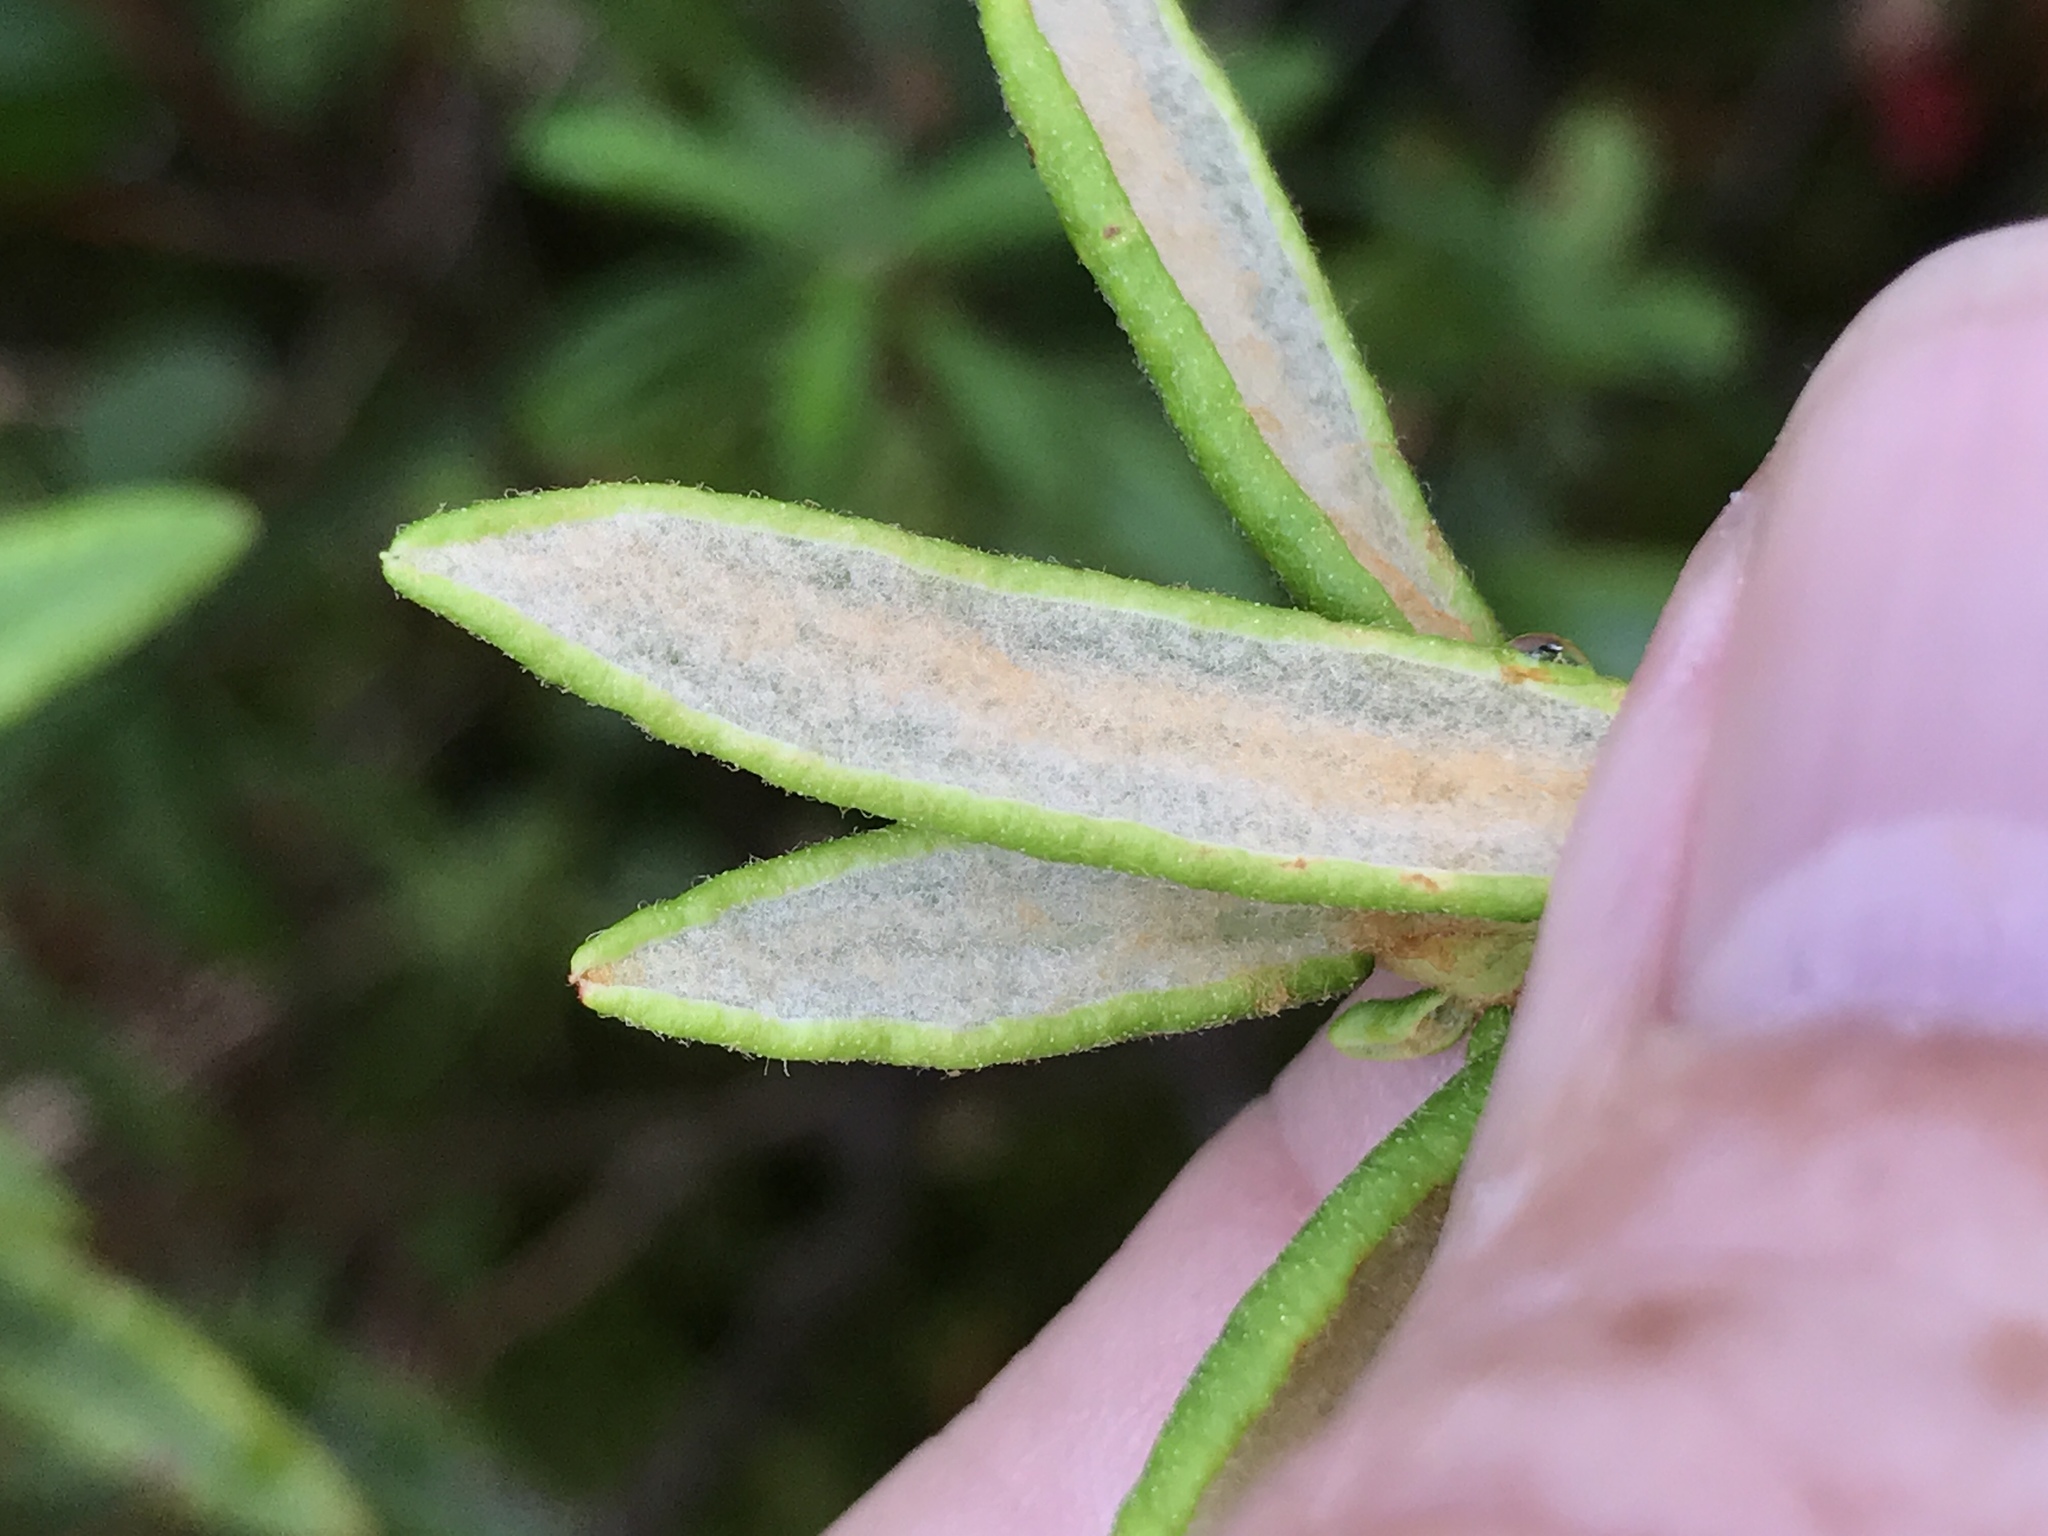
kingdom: Plantae
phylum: Tracheophyta
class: Magnoliopsida
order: Ericales
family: Ericaceae
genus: Rhododendron
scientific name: Rhododendron groenlandicum
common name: Bog labrador tea
